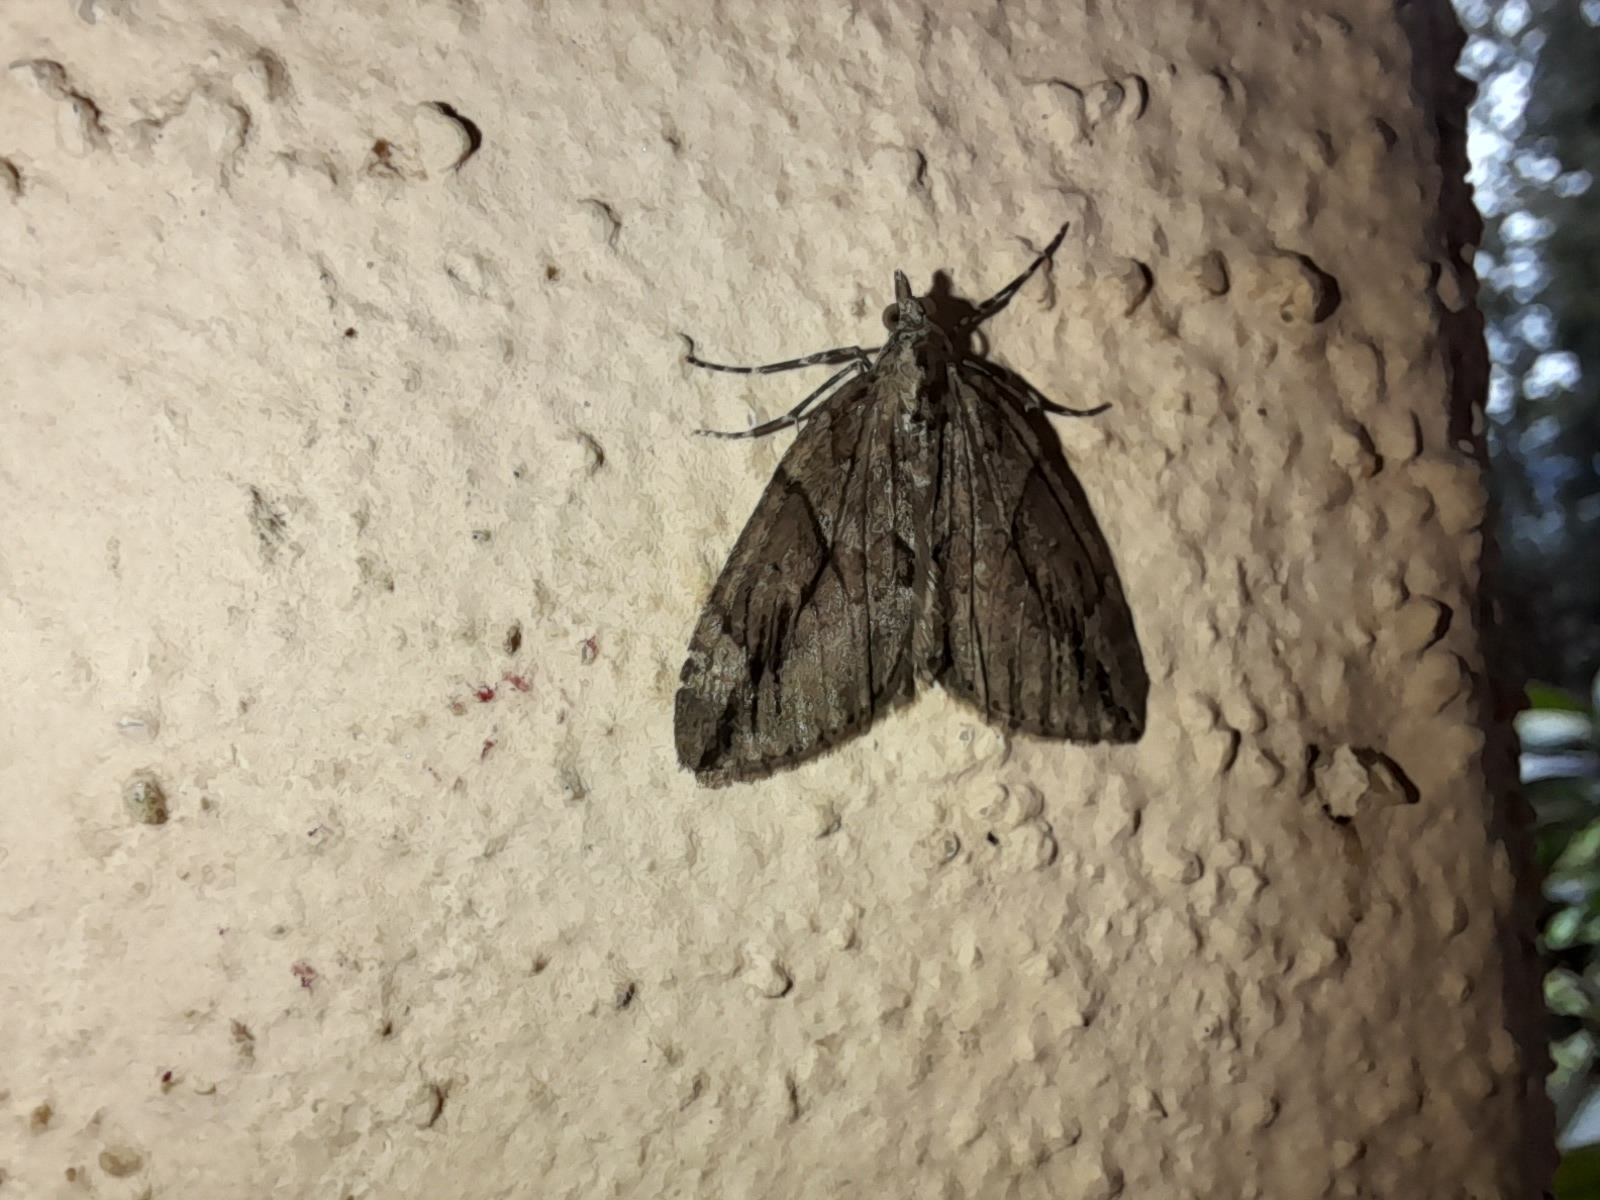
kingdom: Animalia
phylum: Arthropoda
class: Insecta
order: Lepidoptera
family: Geometridae
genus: Thera
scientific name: Thera cupressata
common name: Cypress carpet
